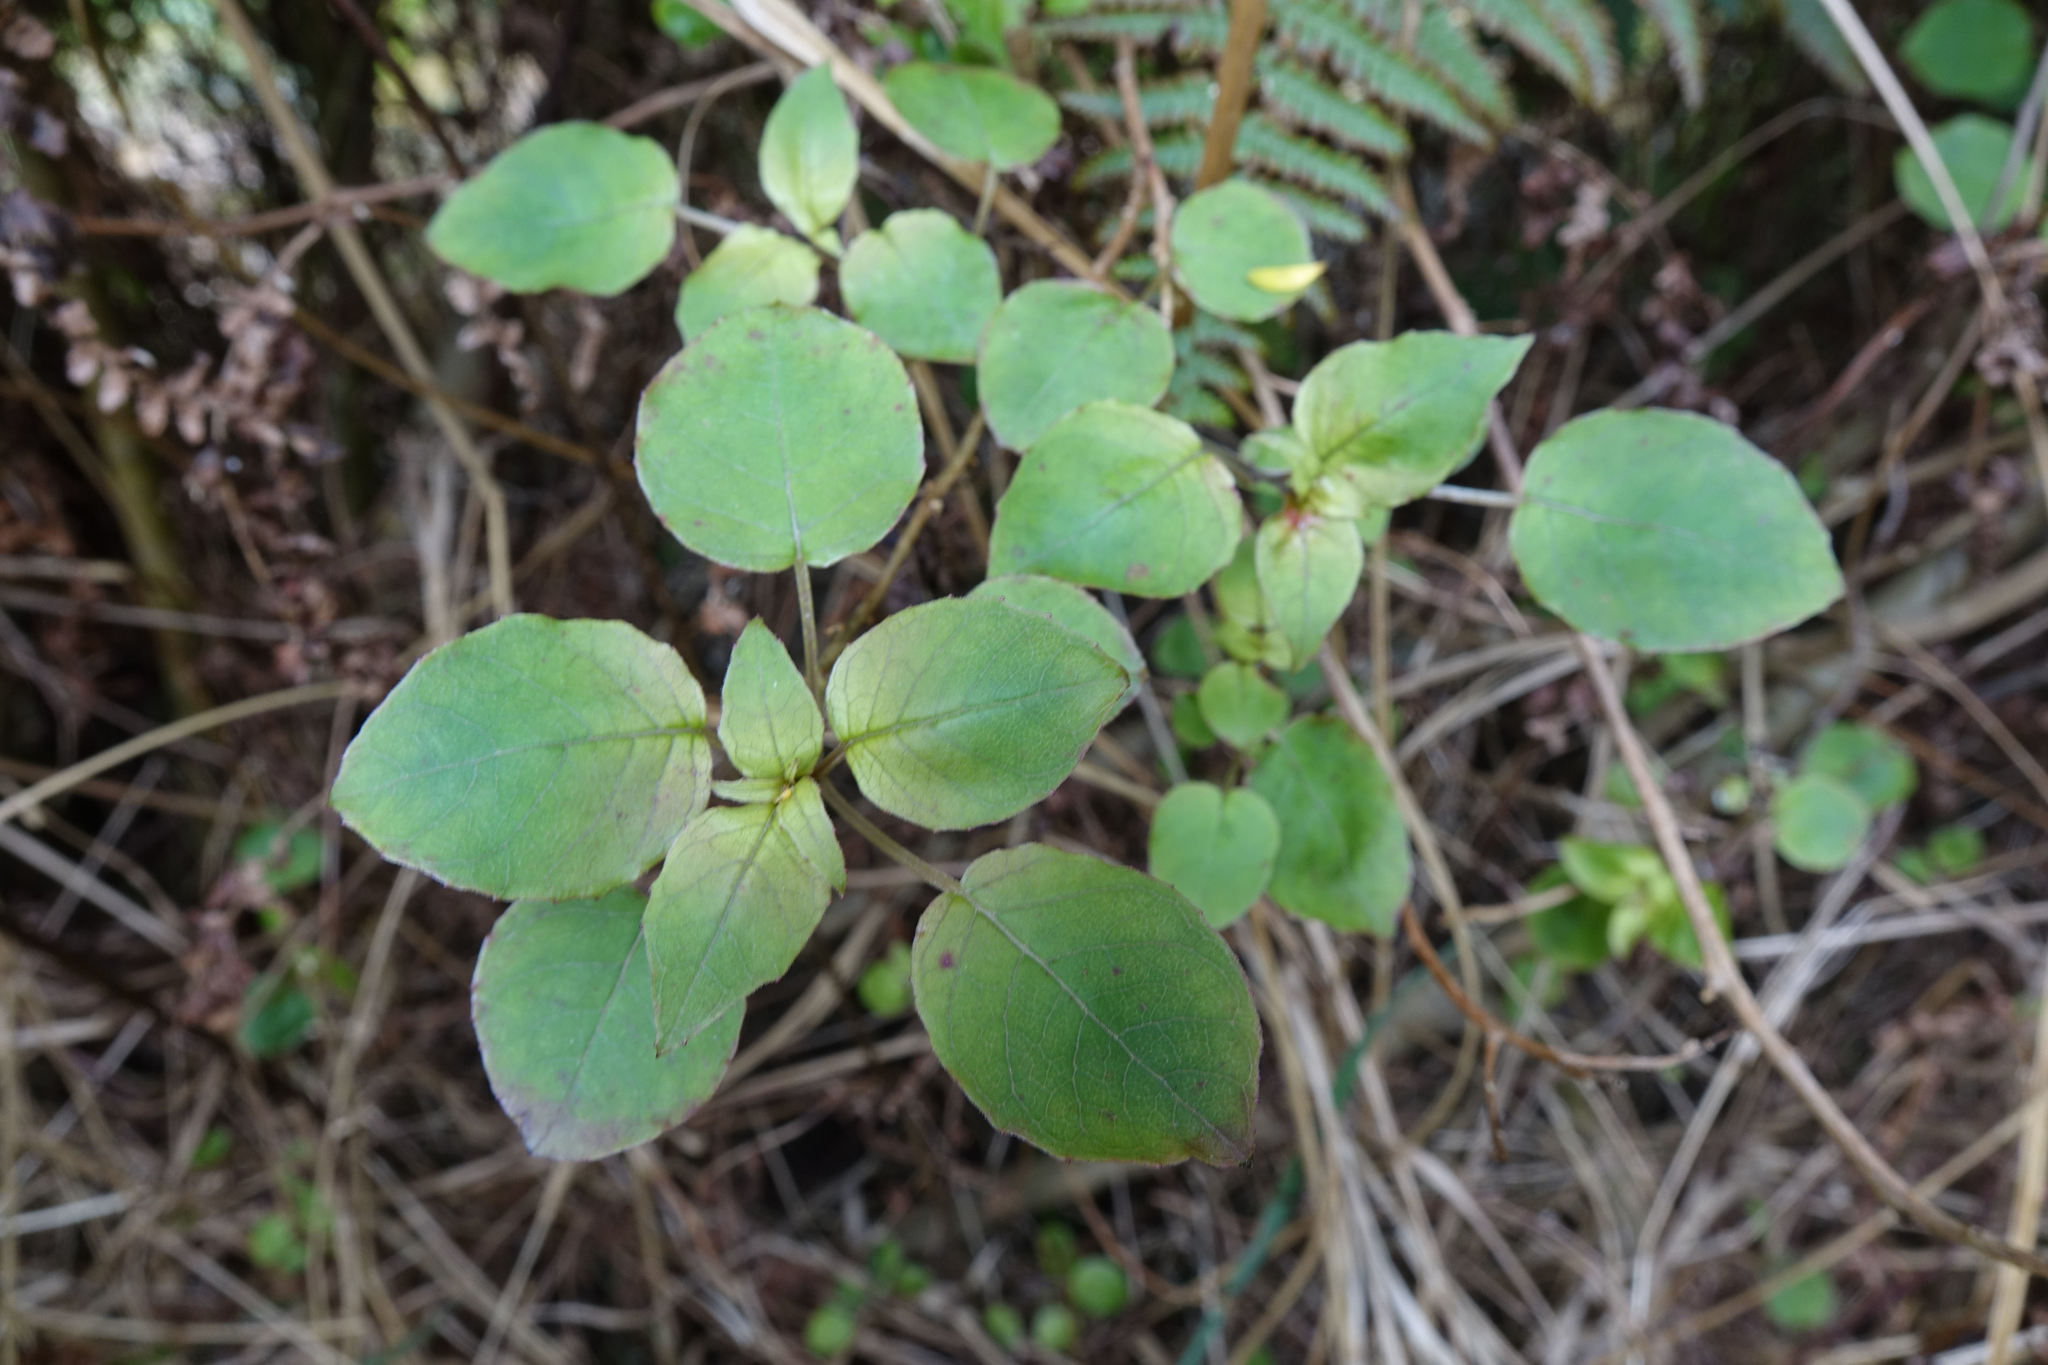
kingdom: Plantae
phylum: Tracheophyta
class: Magnoliopsida
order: Myrtales
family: Onagraceae
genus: Fuchsia
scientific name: Fuchsia perscandens
